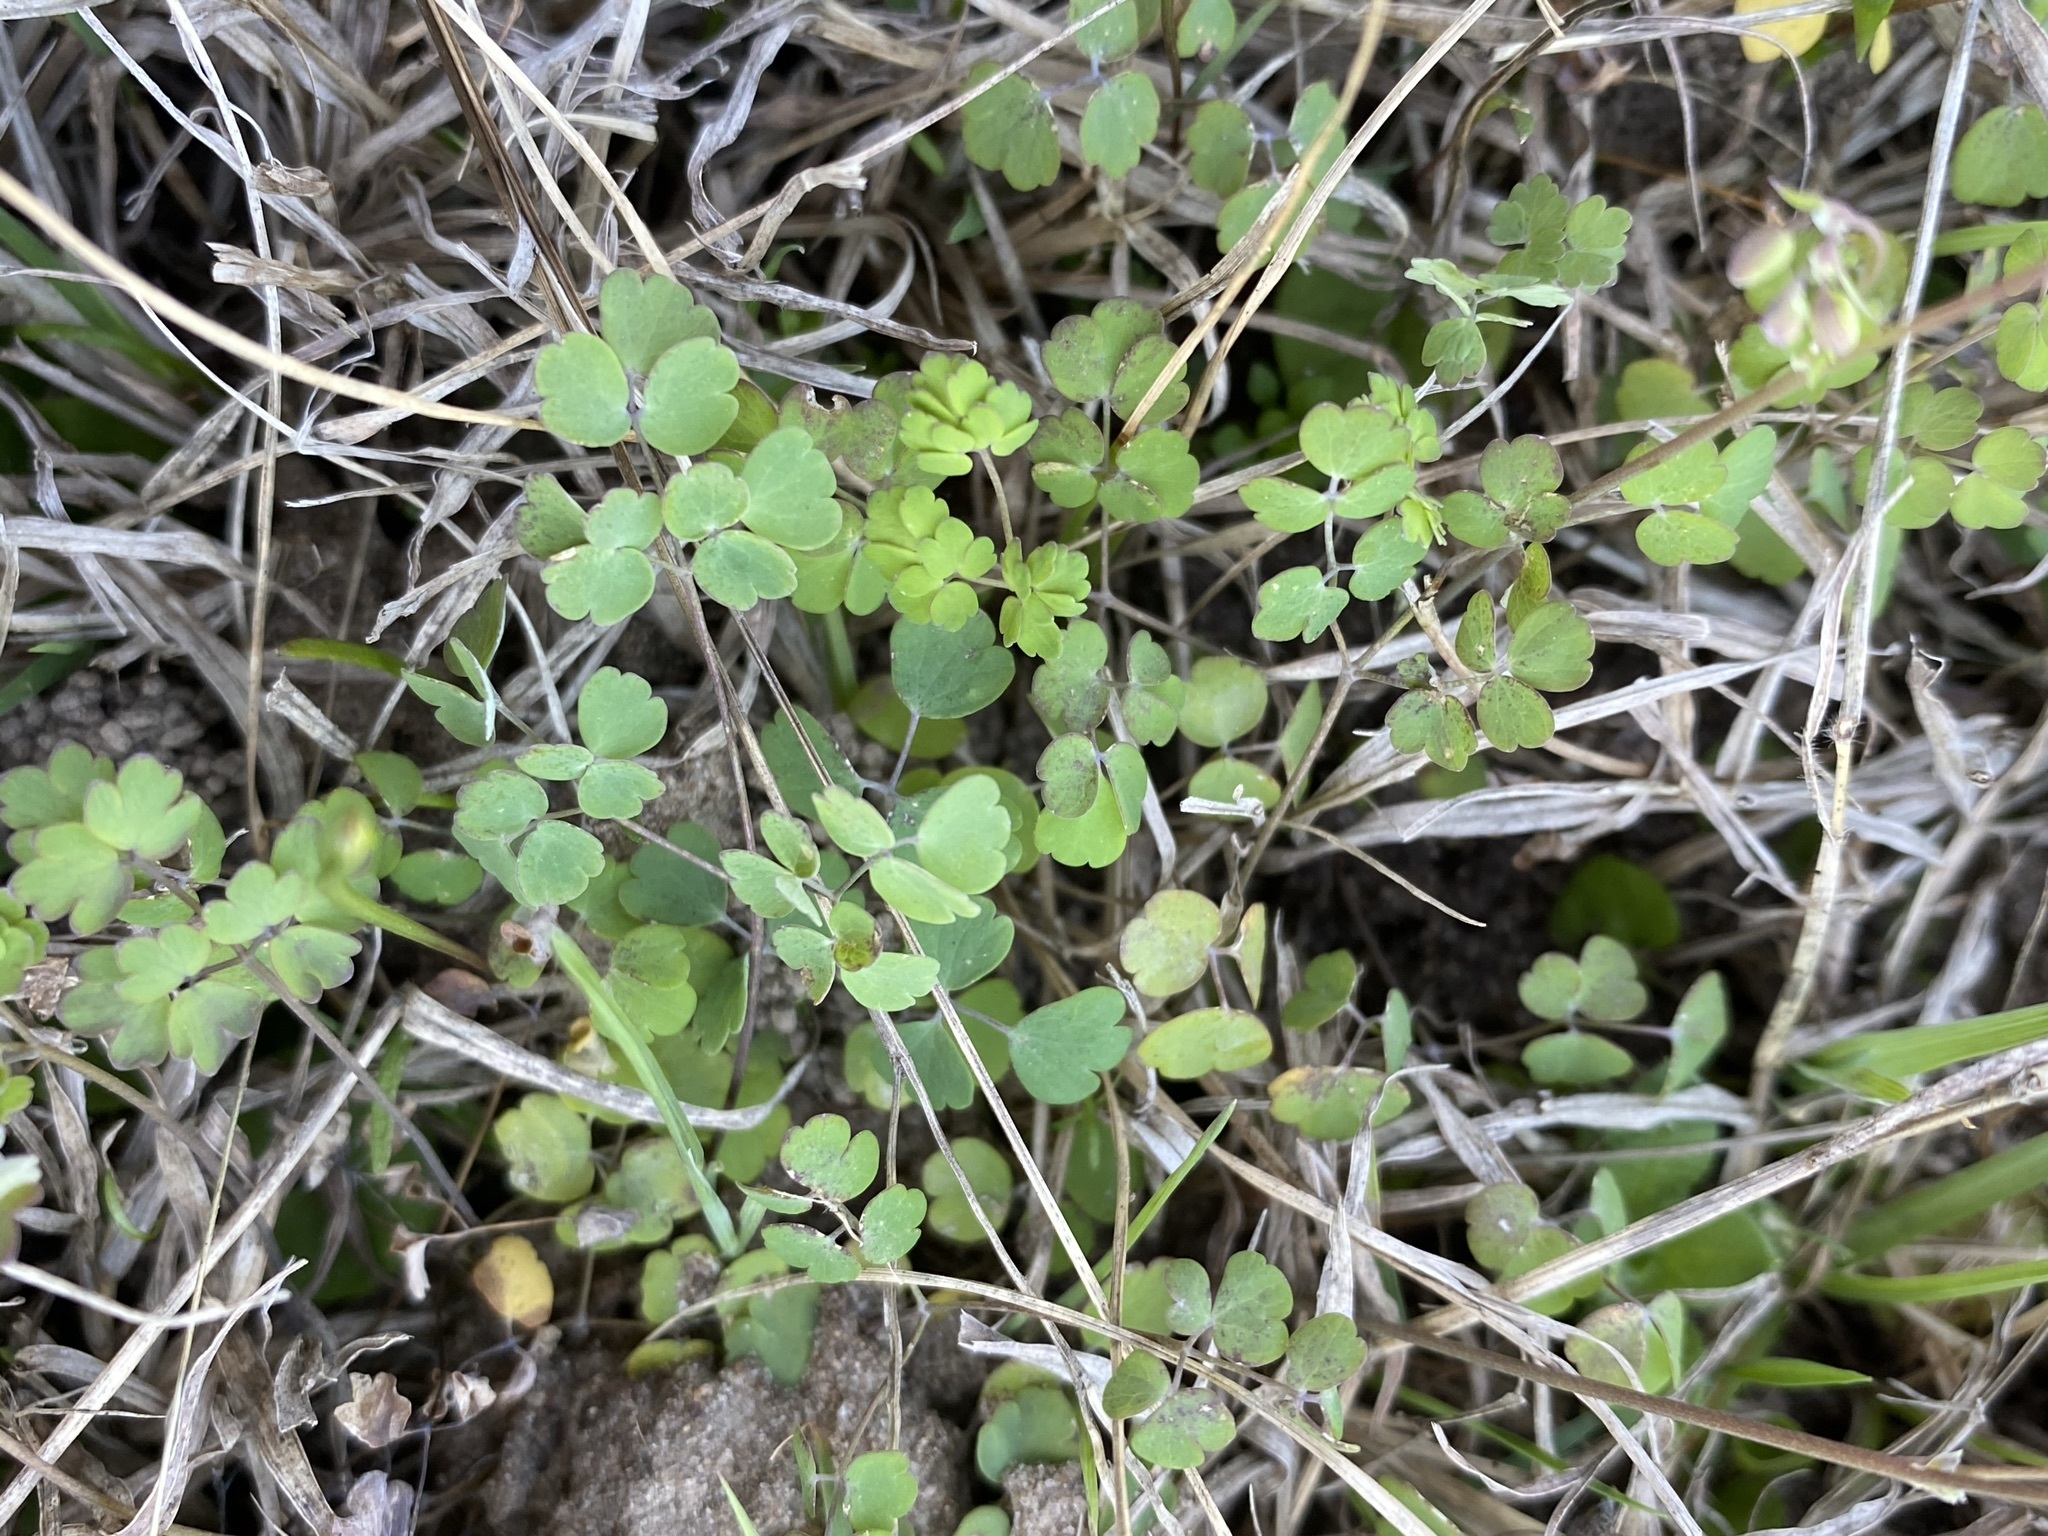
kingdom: Plantae
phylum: Tracheophyta
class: Magnoliopsida
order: Ranunculales
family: Ranunculaceae
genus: Thalictrum
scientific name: Thalictrum texanum
